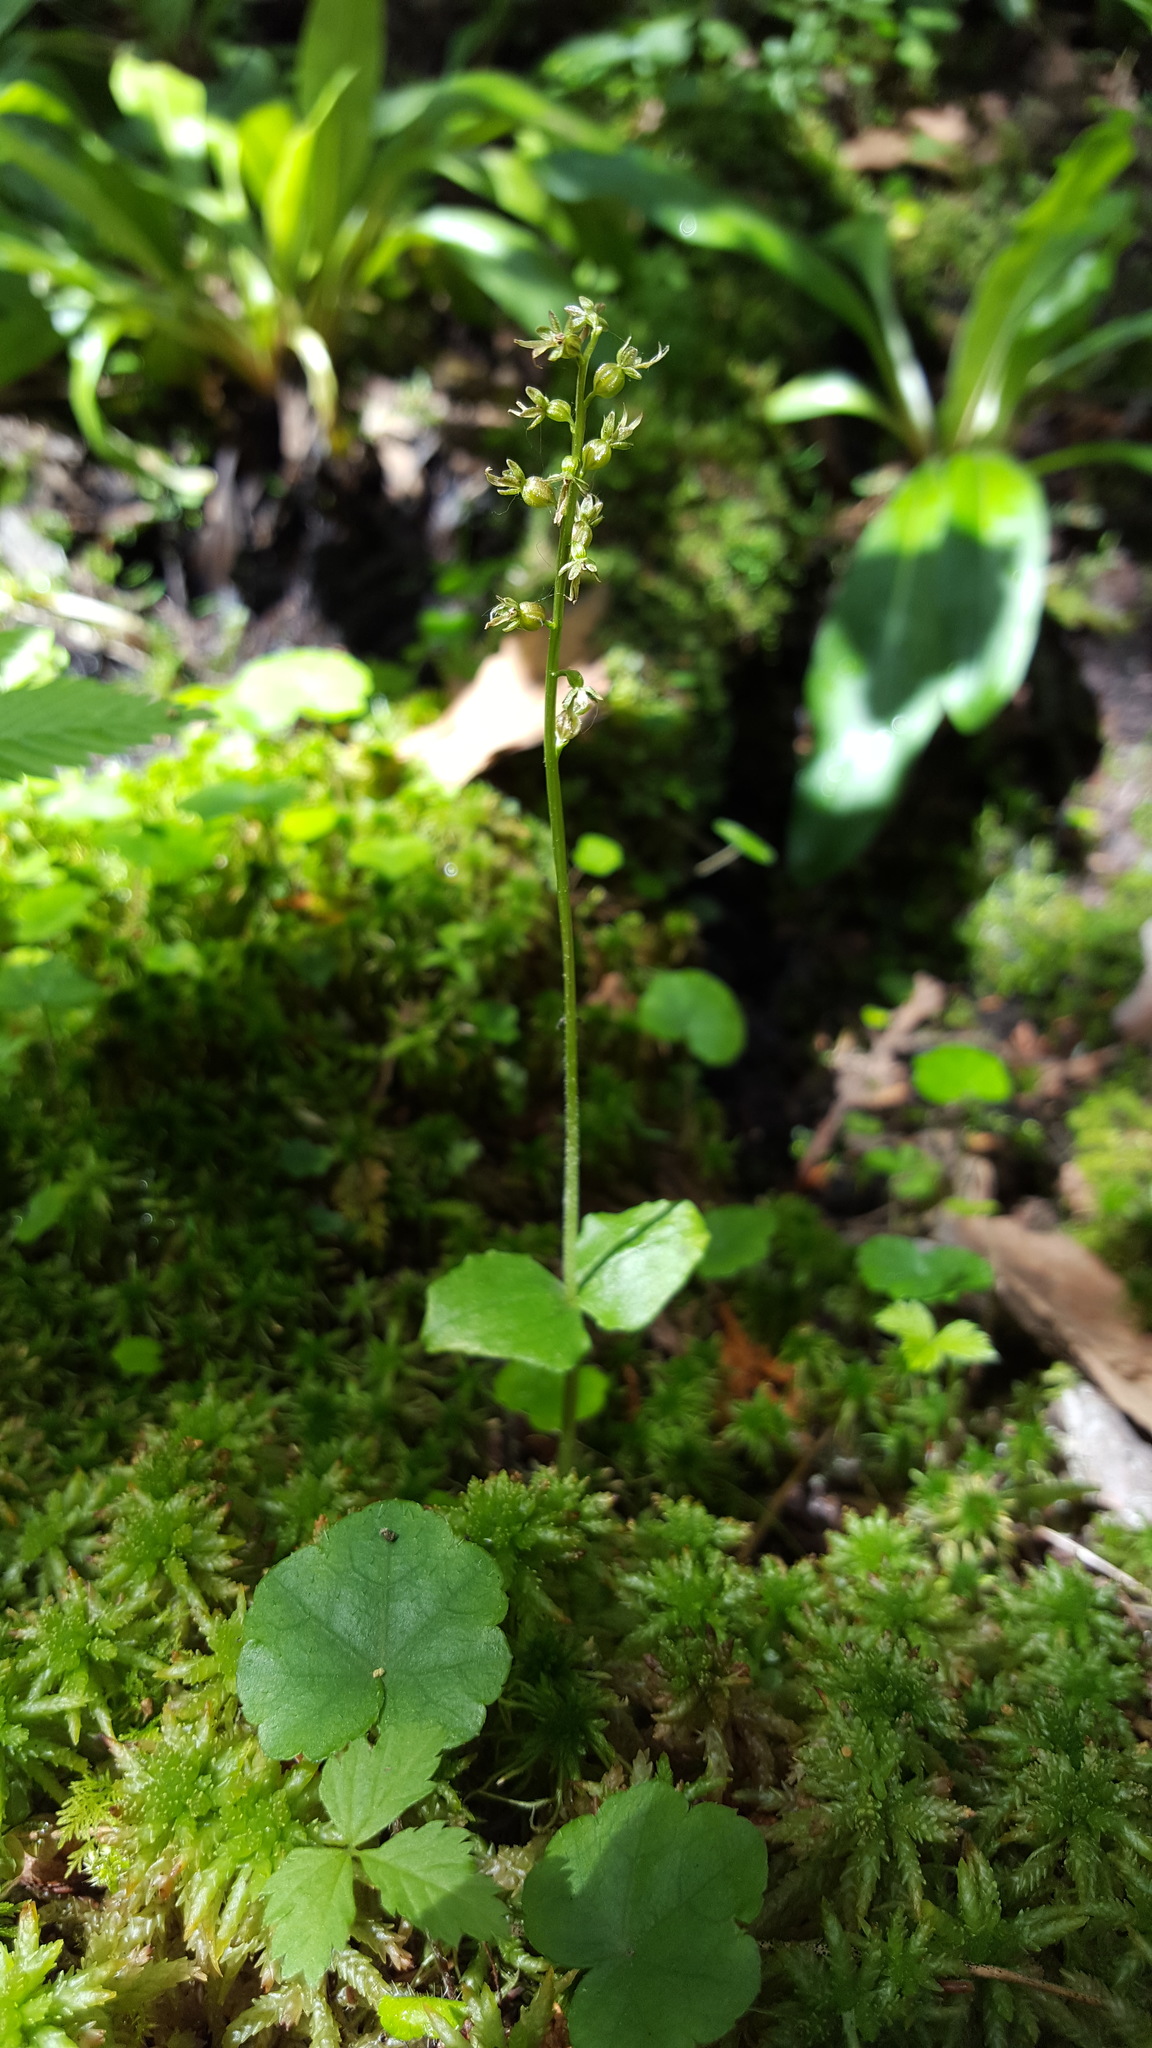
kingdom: Plantae
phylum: Tracheophyta
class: Liliopsida
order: Asparagales
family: Orchidaceae
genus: Neottia
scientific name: Neottia cordata
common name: Lesser twayblade
